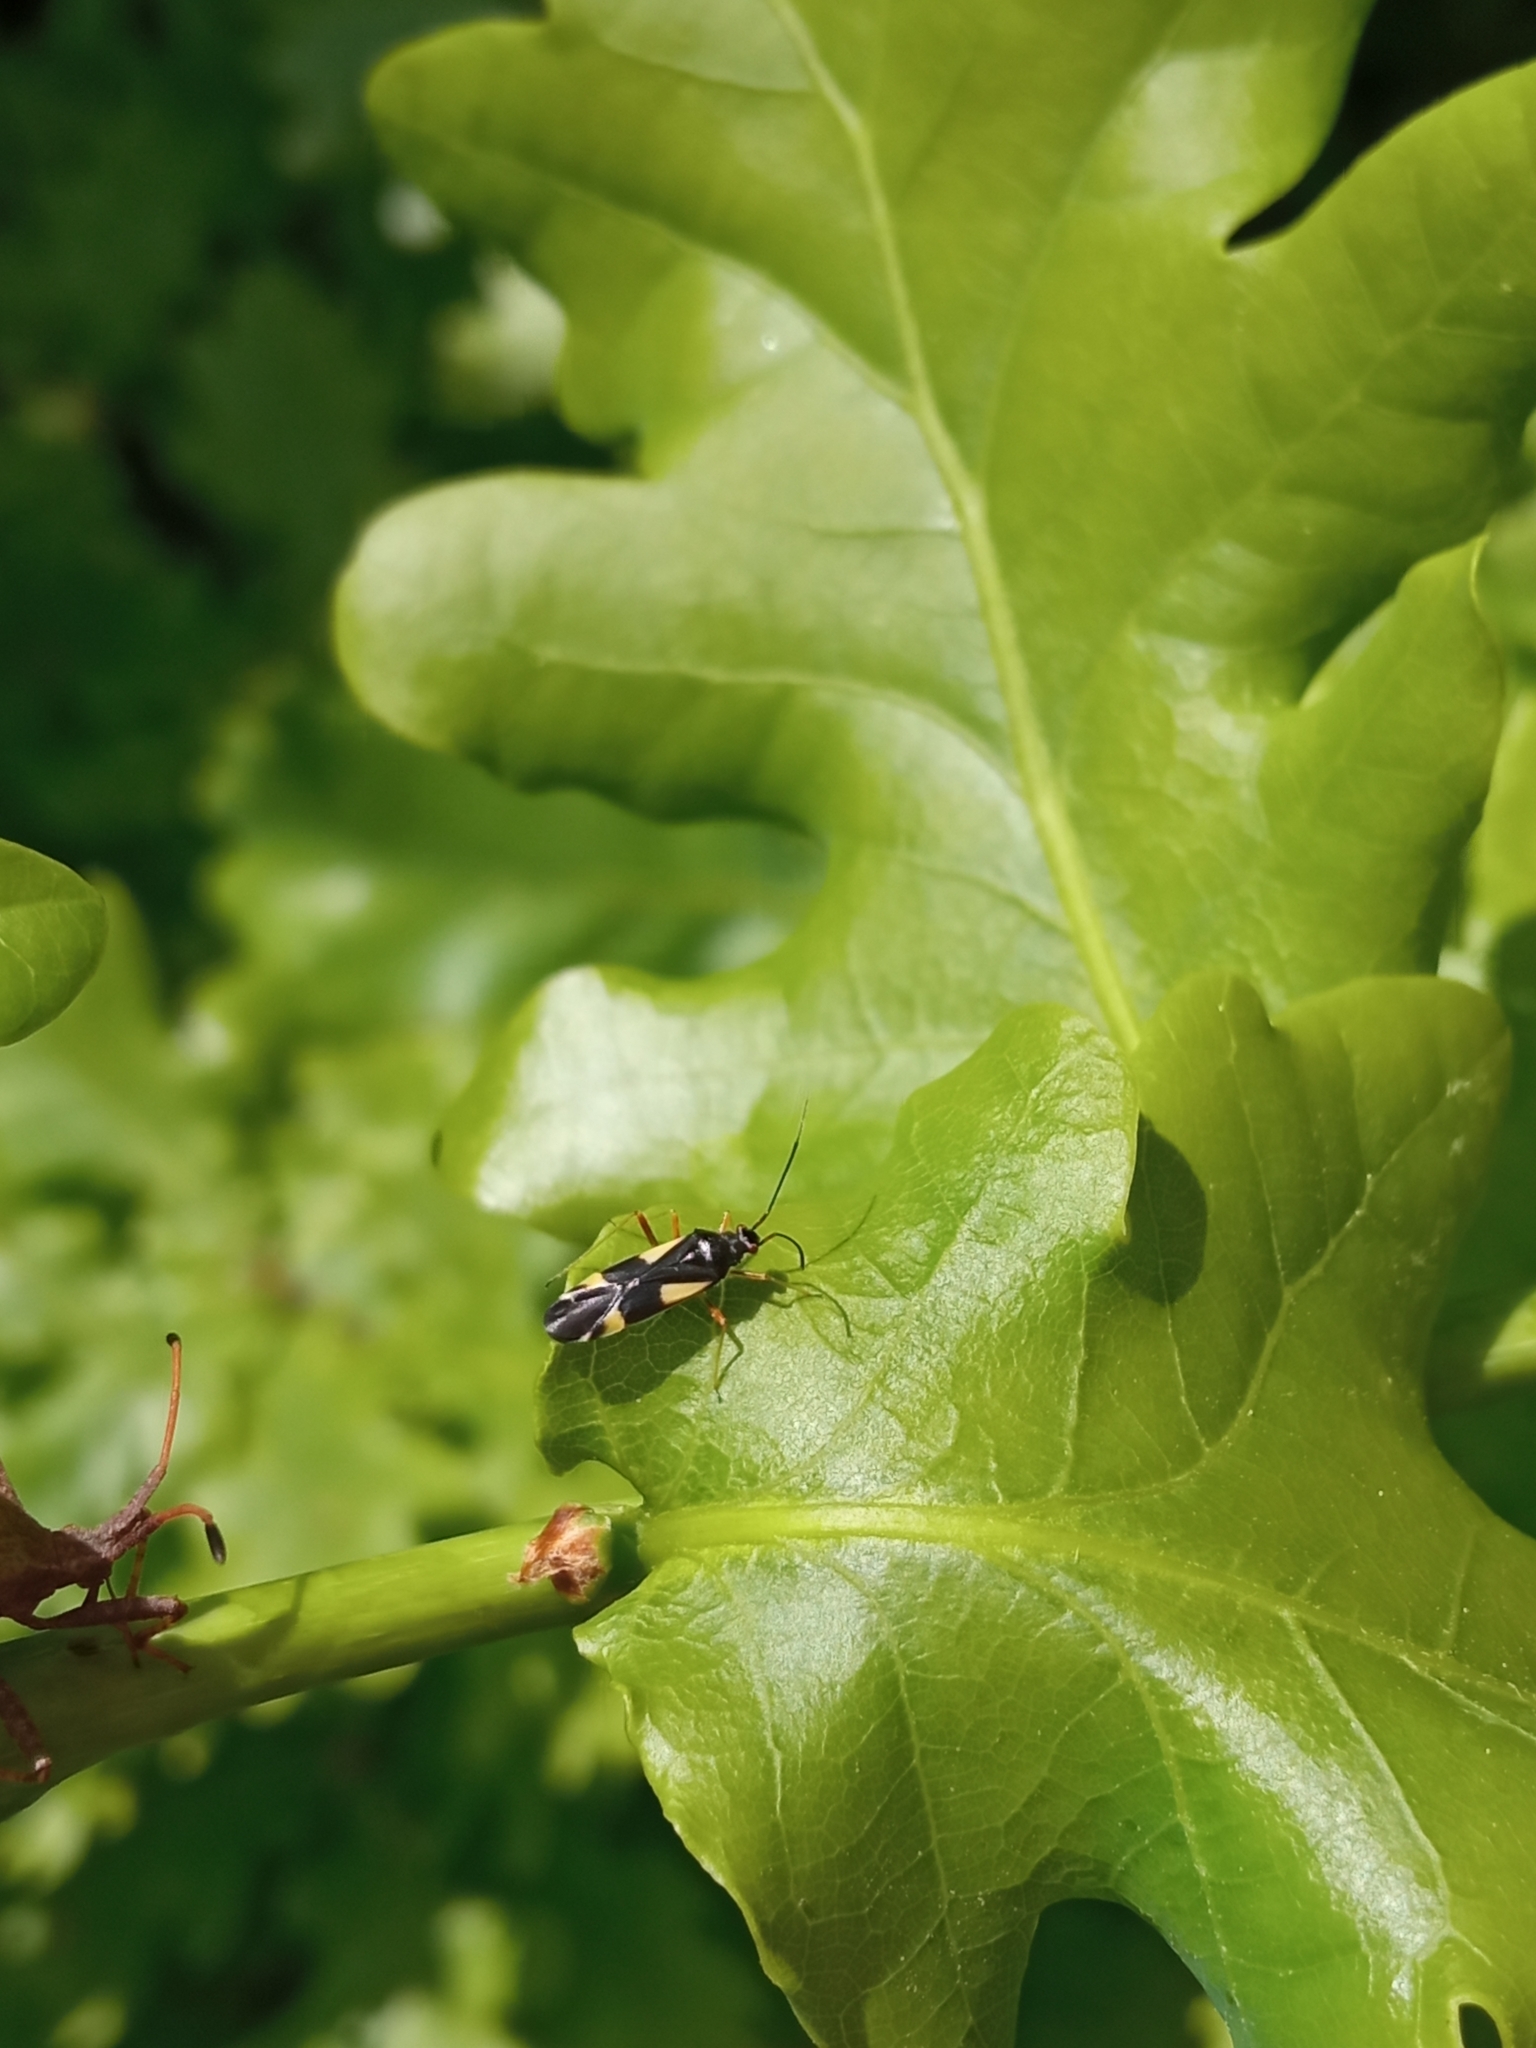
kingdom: Animalia
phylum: Arthropoda
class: Insecta
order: Hemiptera
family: Miridae
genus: Dryophilocoris
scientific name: Dryophilocoris flavoquadrimaculatus
